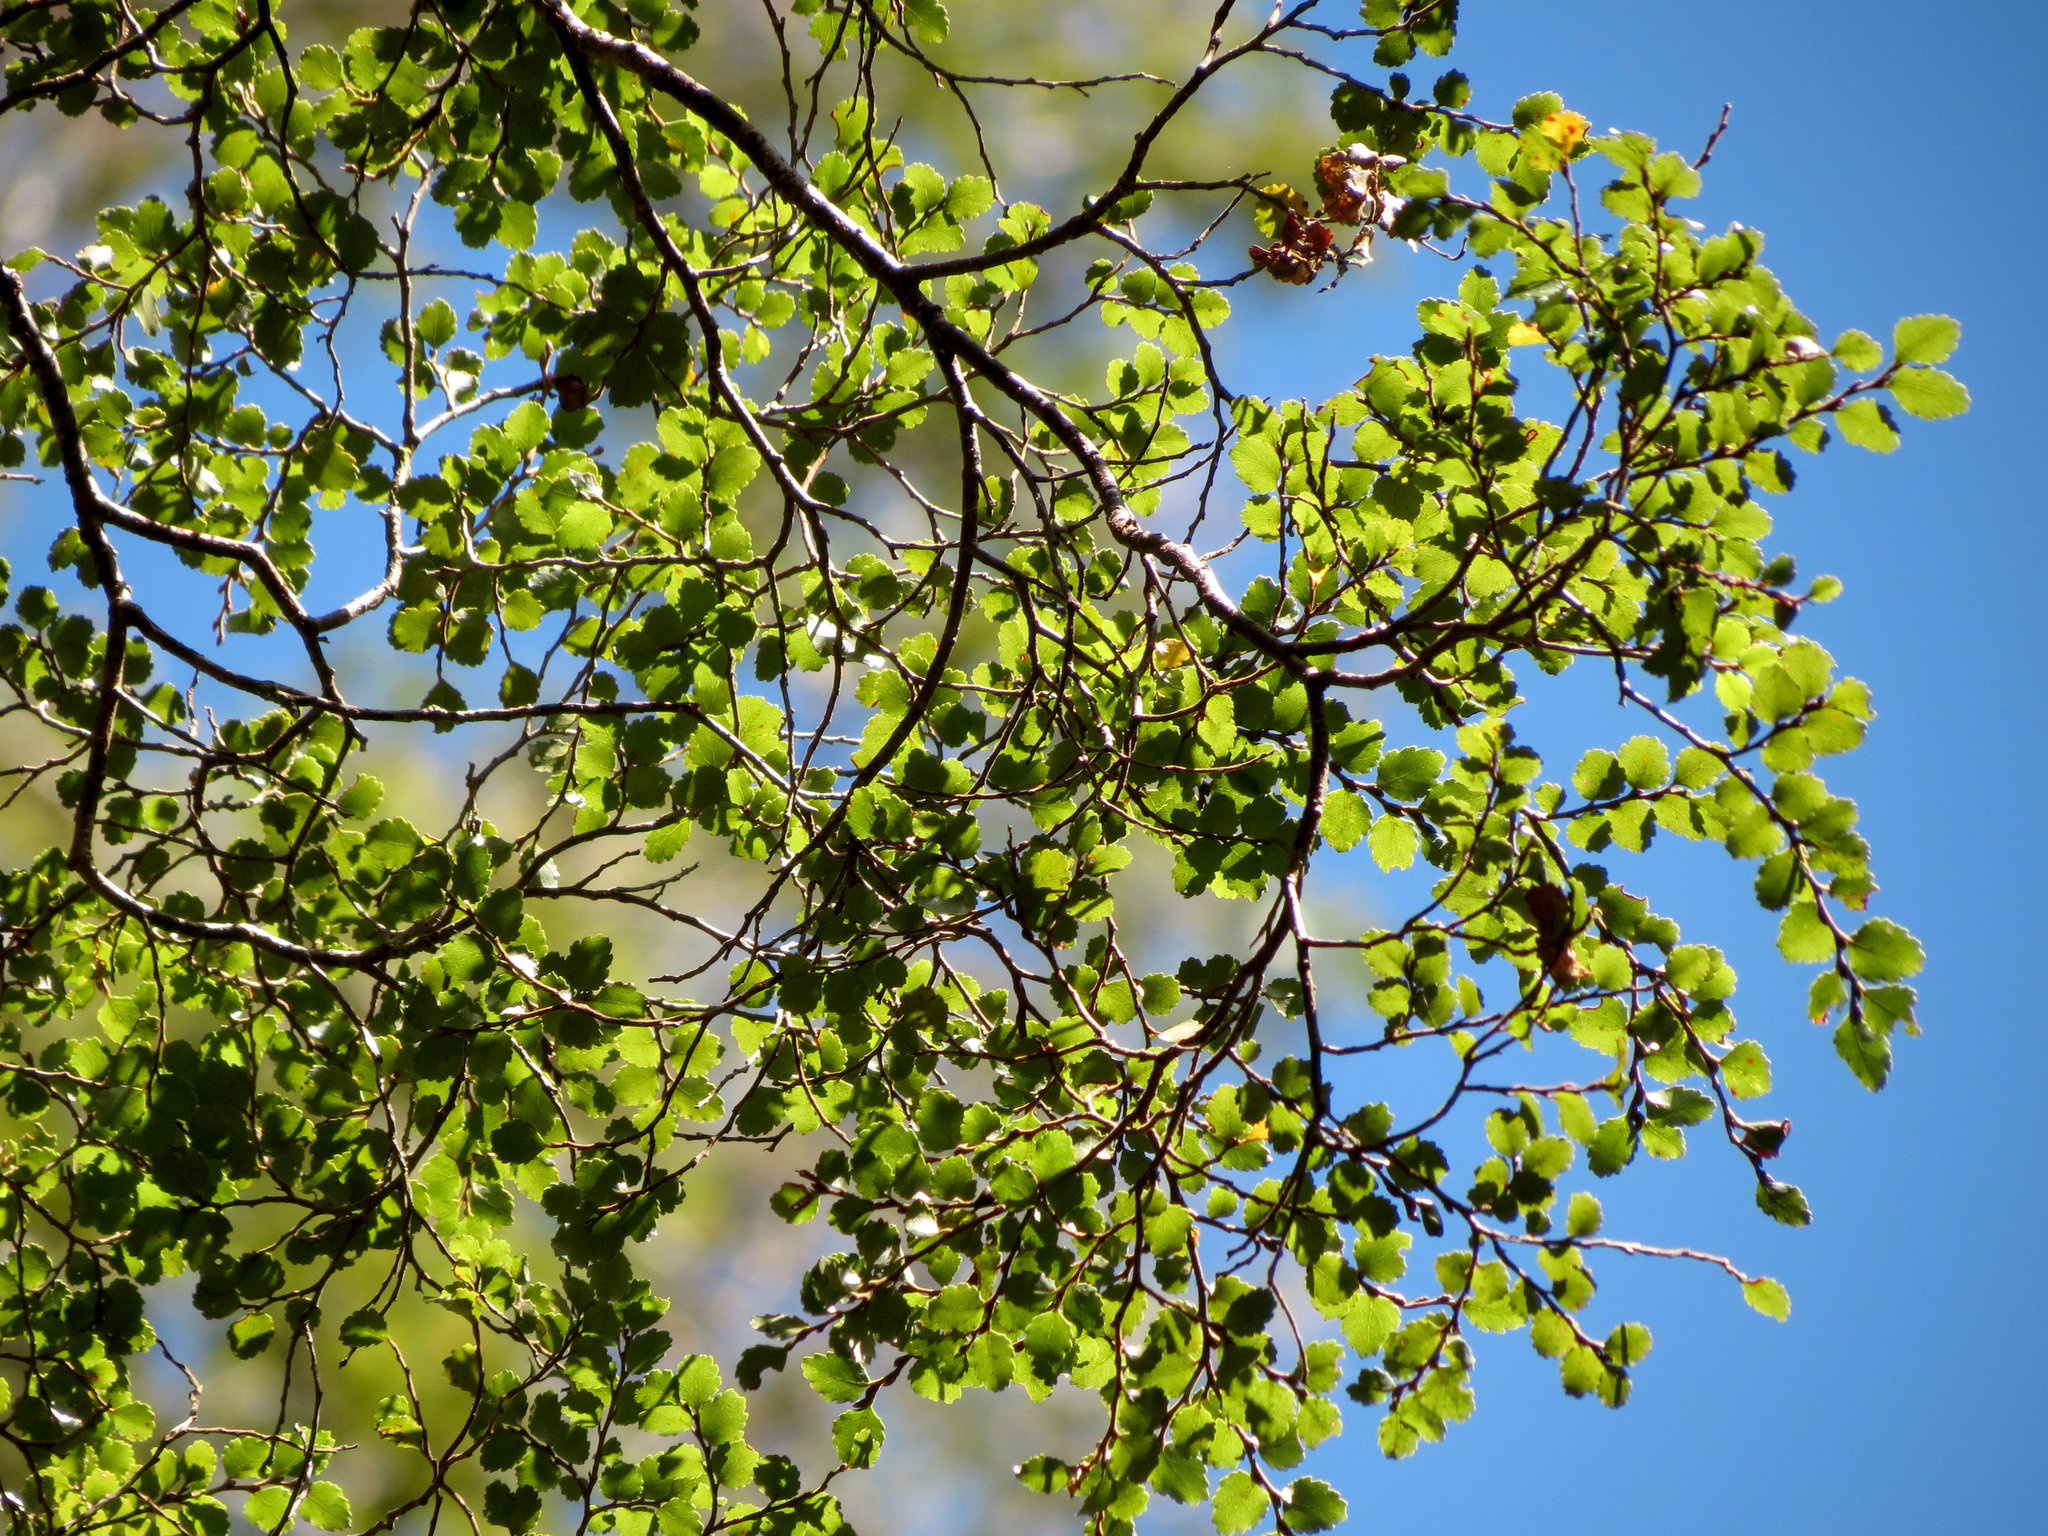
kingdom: Plantae
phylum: Tracheophyta
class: Magnoliopsida
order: Fagales
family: Nothofagaceae
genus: Nothofagus
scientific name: Nothofagus menziesii
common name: Silver beech
